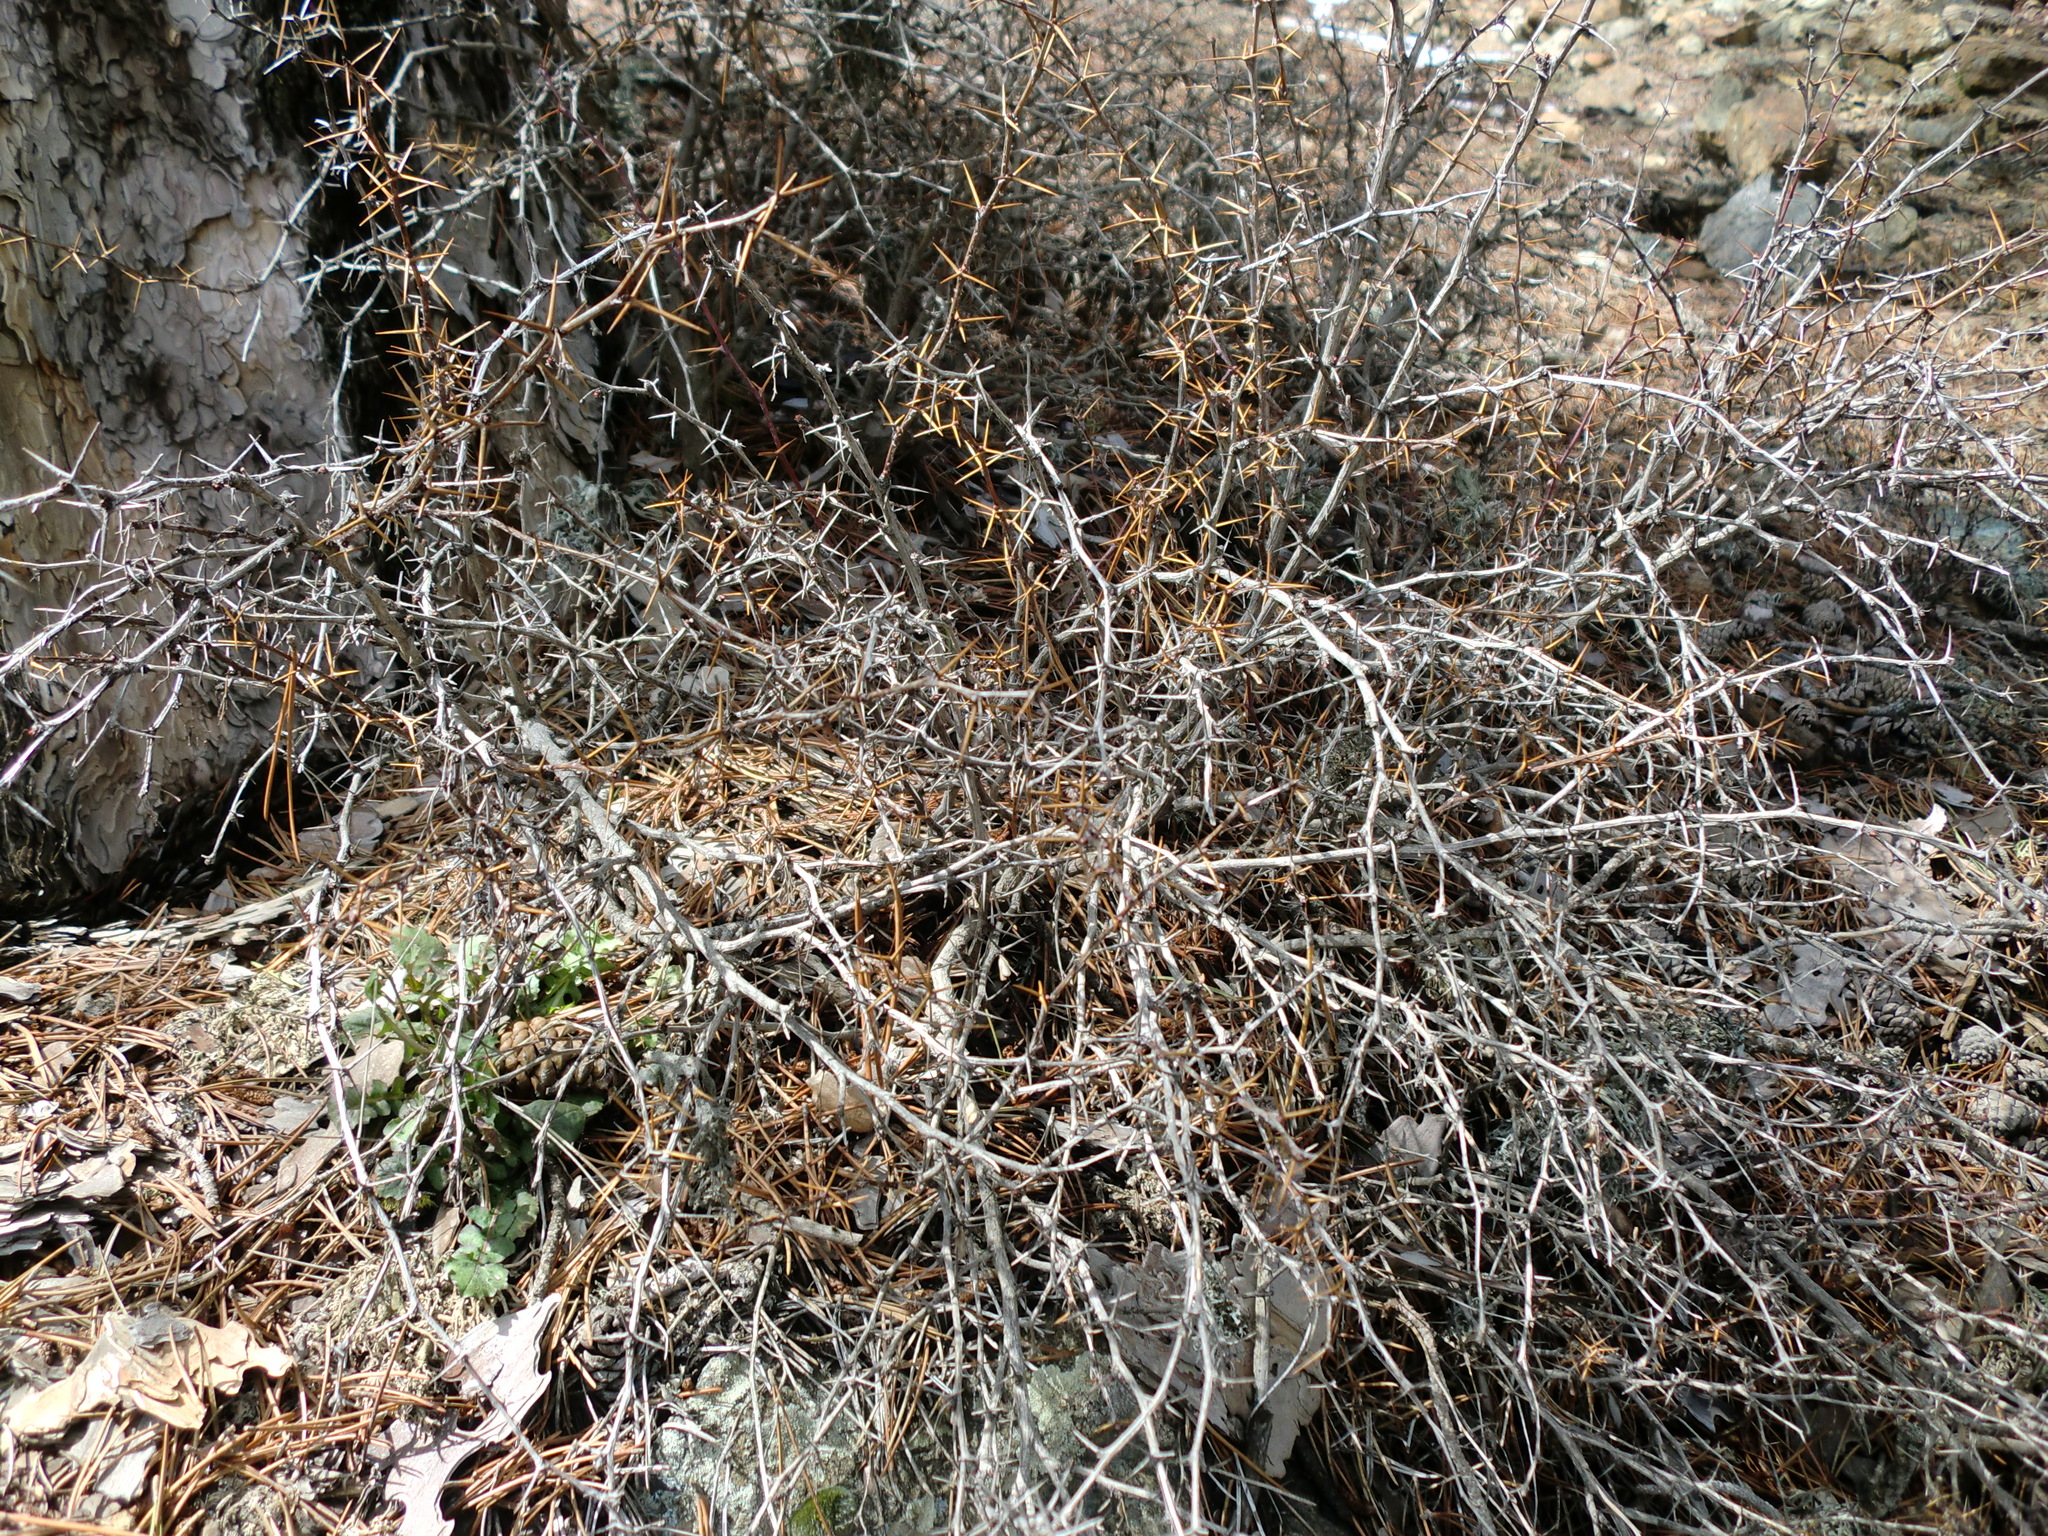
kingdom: Plantae
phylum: Tracheophyta
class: Magnoliopsida
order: Ranunculales
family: Berberidaceae
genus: Berberis
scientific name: Berberis cretica
